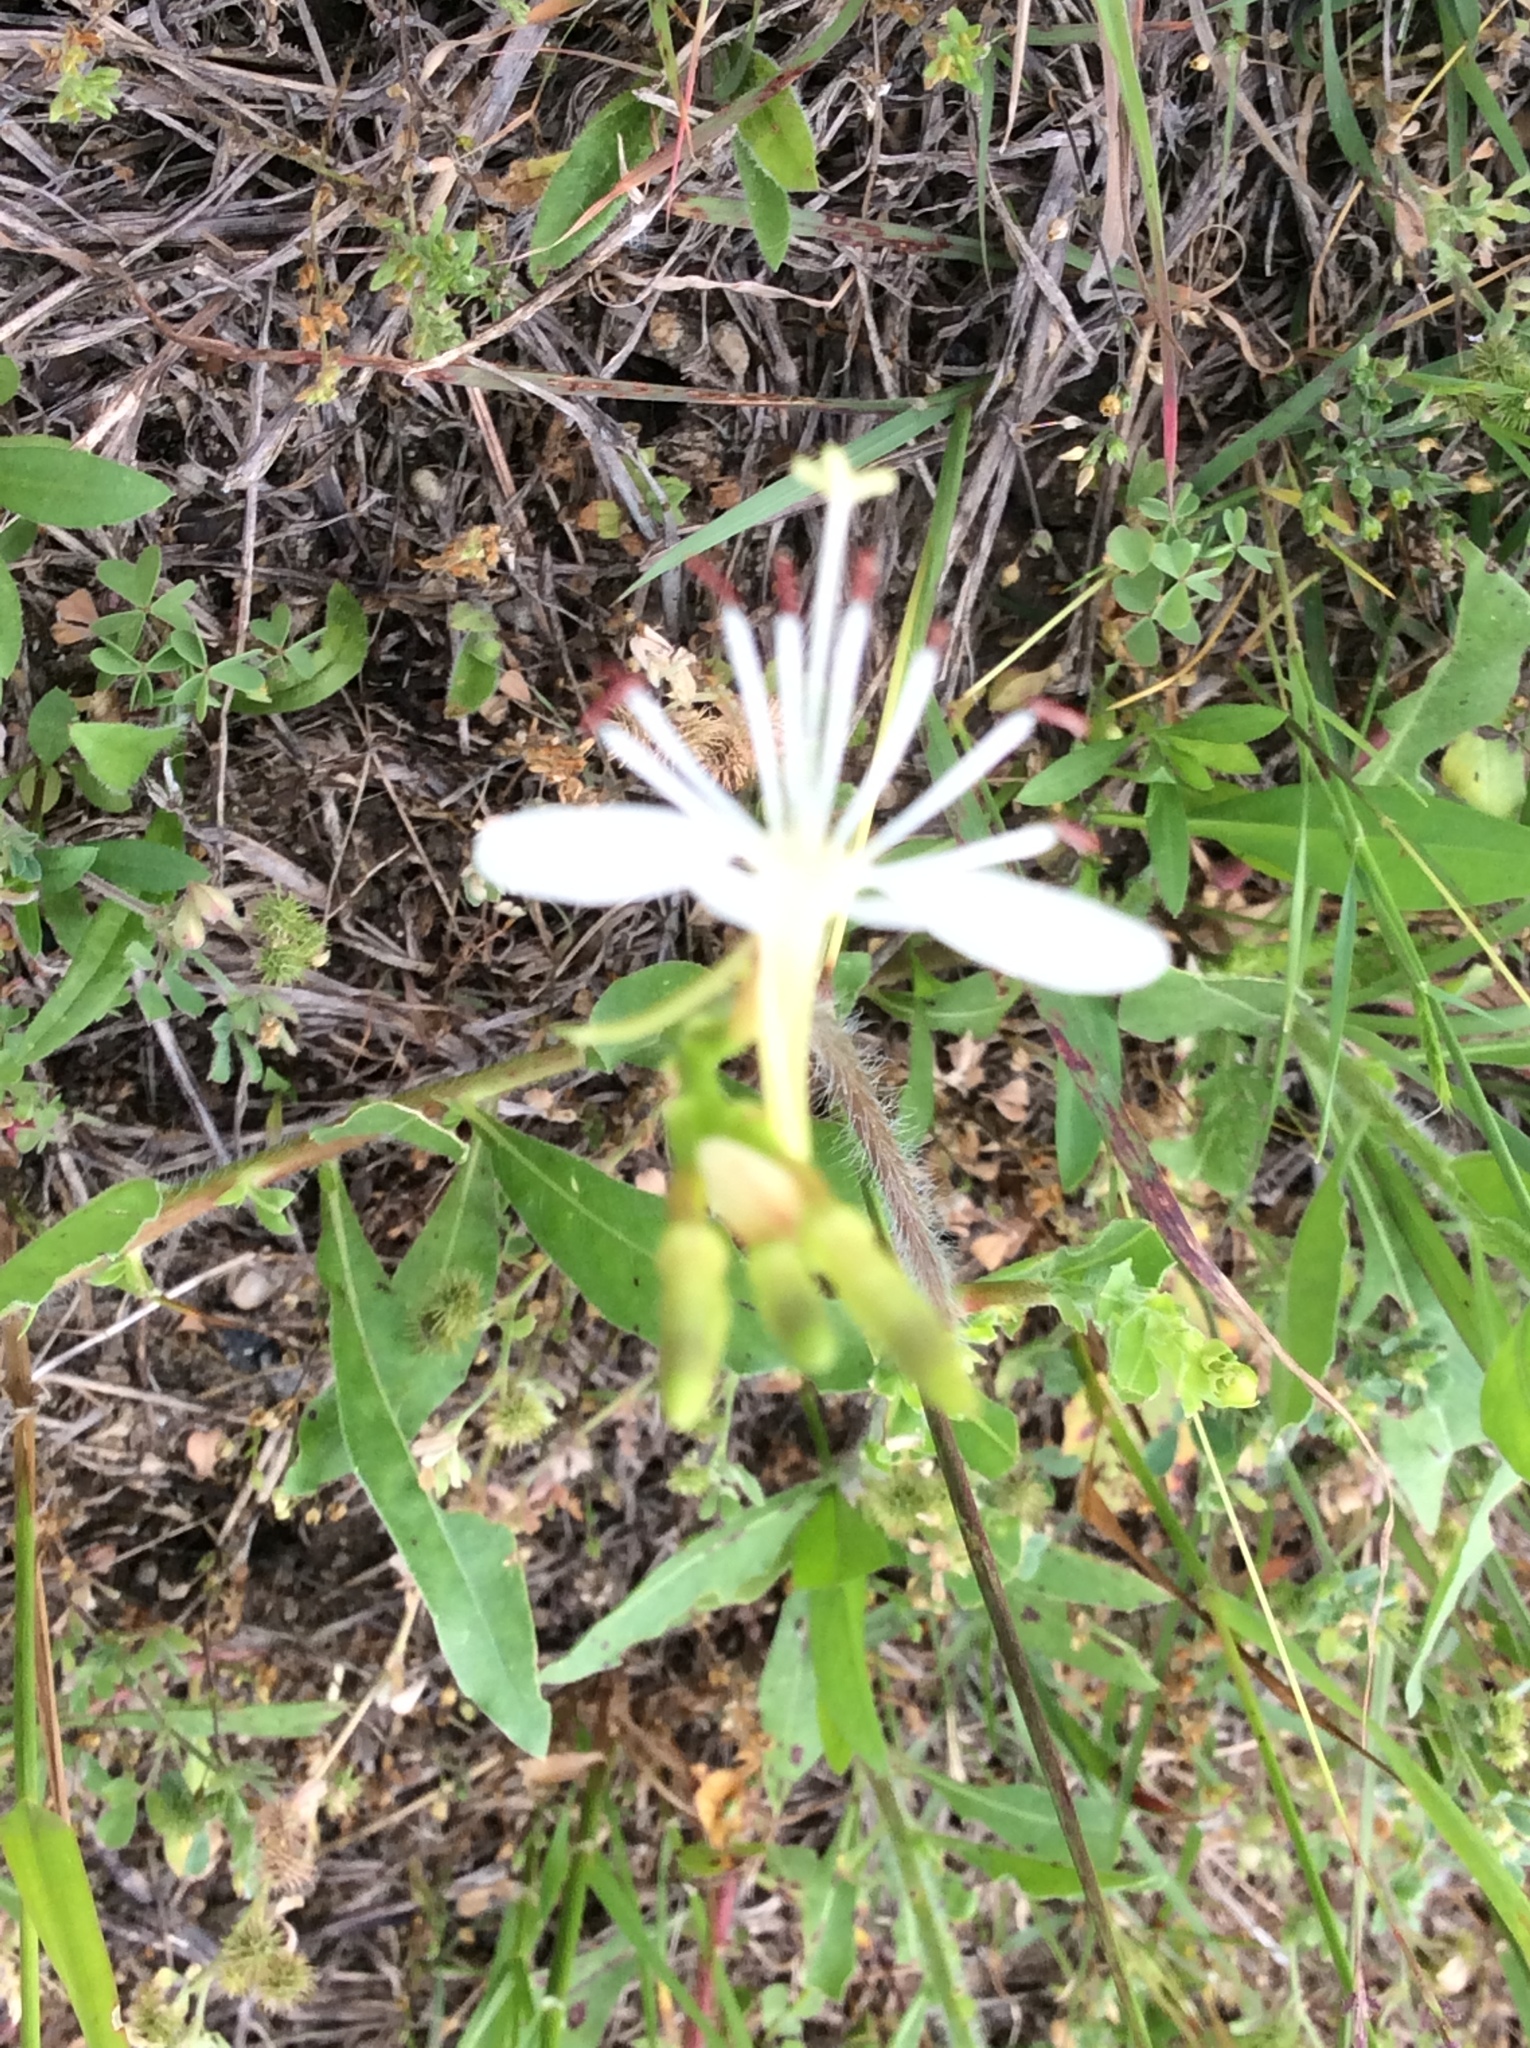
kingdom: Plantae
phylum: Tracheophyta
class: Magnoliopsida
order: Myrtales
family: Onagraceae
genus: Oenothera
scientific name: Oenothera suffulta
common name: Kisses
